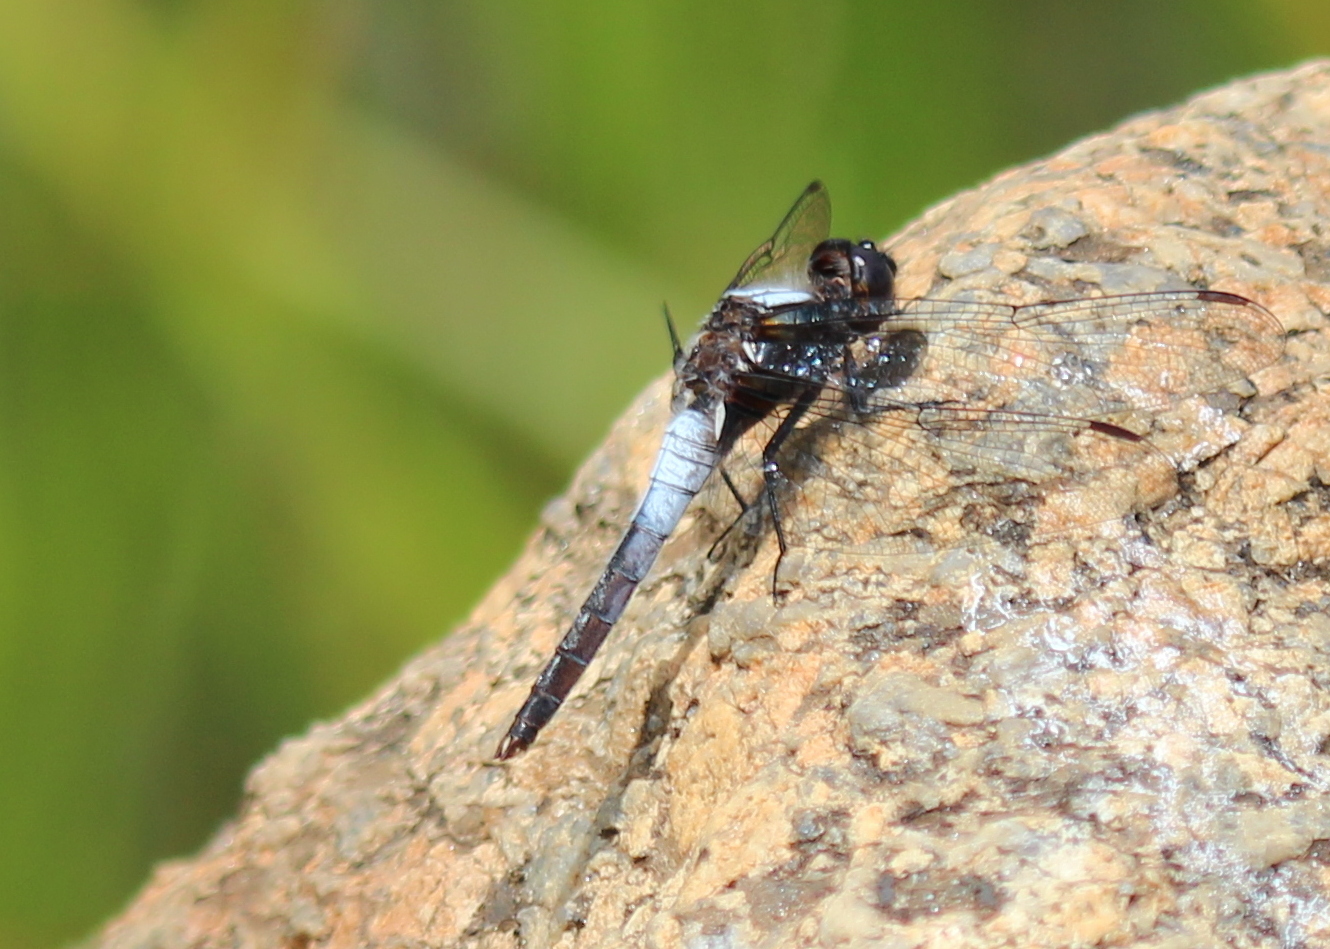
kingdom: Animalia
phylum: Arthropoda
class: Insecta
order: Odonata
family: Libellulidae
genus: Ladona
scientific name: Ladona julia
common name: Chalk-fronted corporal
